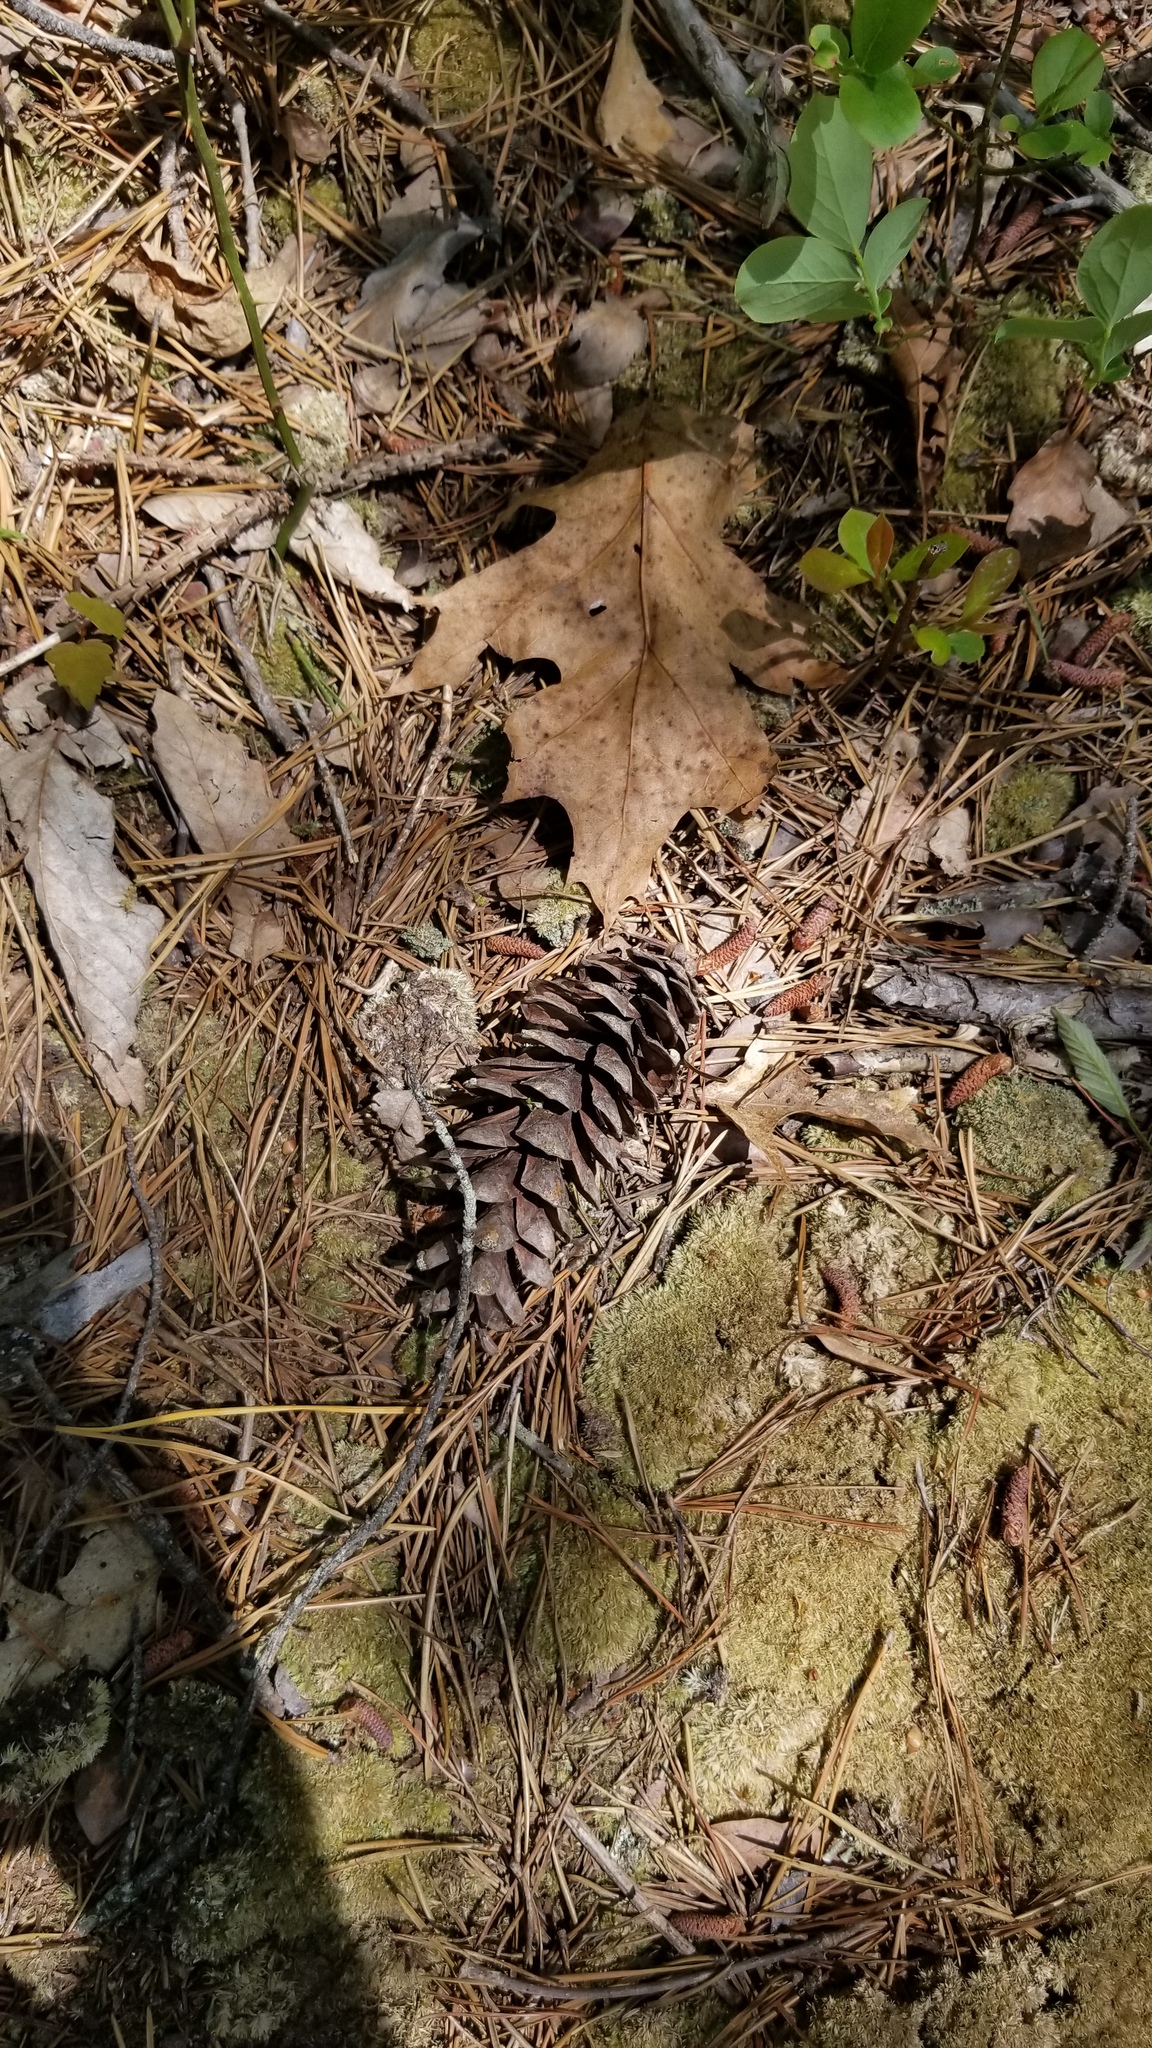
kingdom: Plantae
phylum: Tracheophyta
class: Pinopsida
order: Pinales
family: Pinaceae
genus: Pinus
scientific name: Pinus strobus
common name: Weymouth pine
